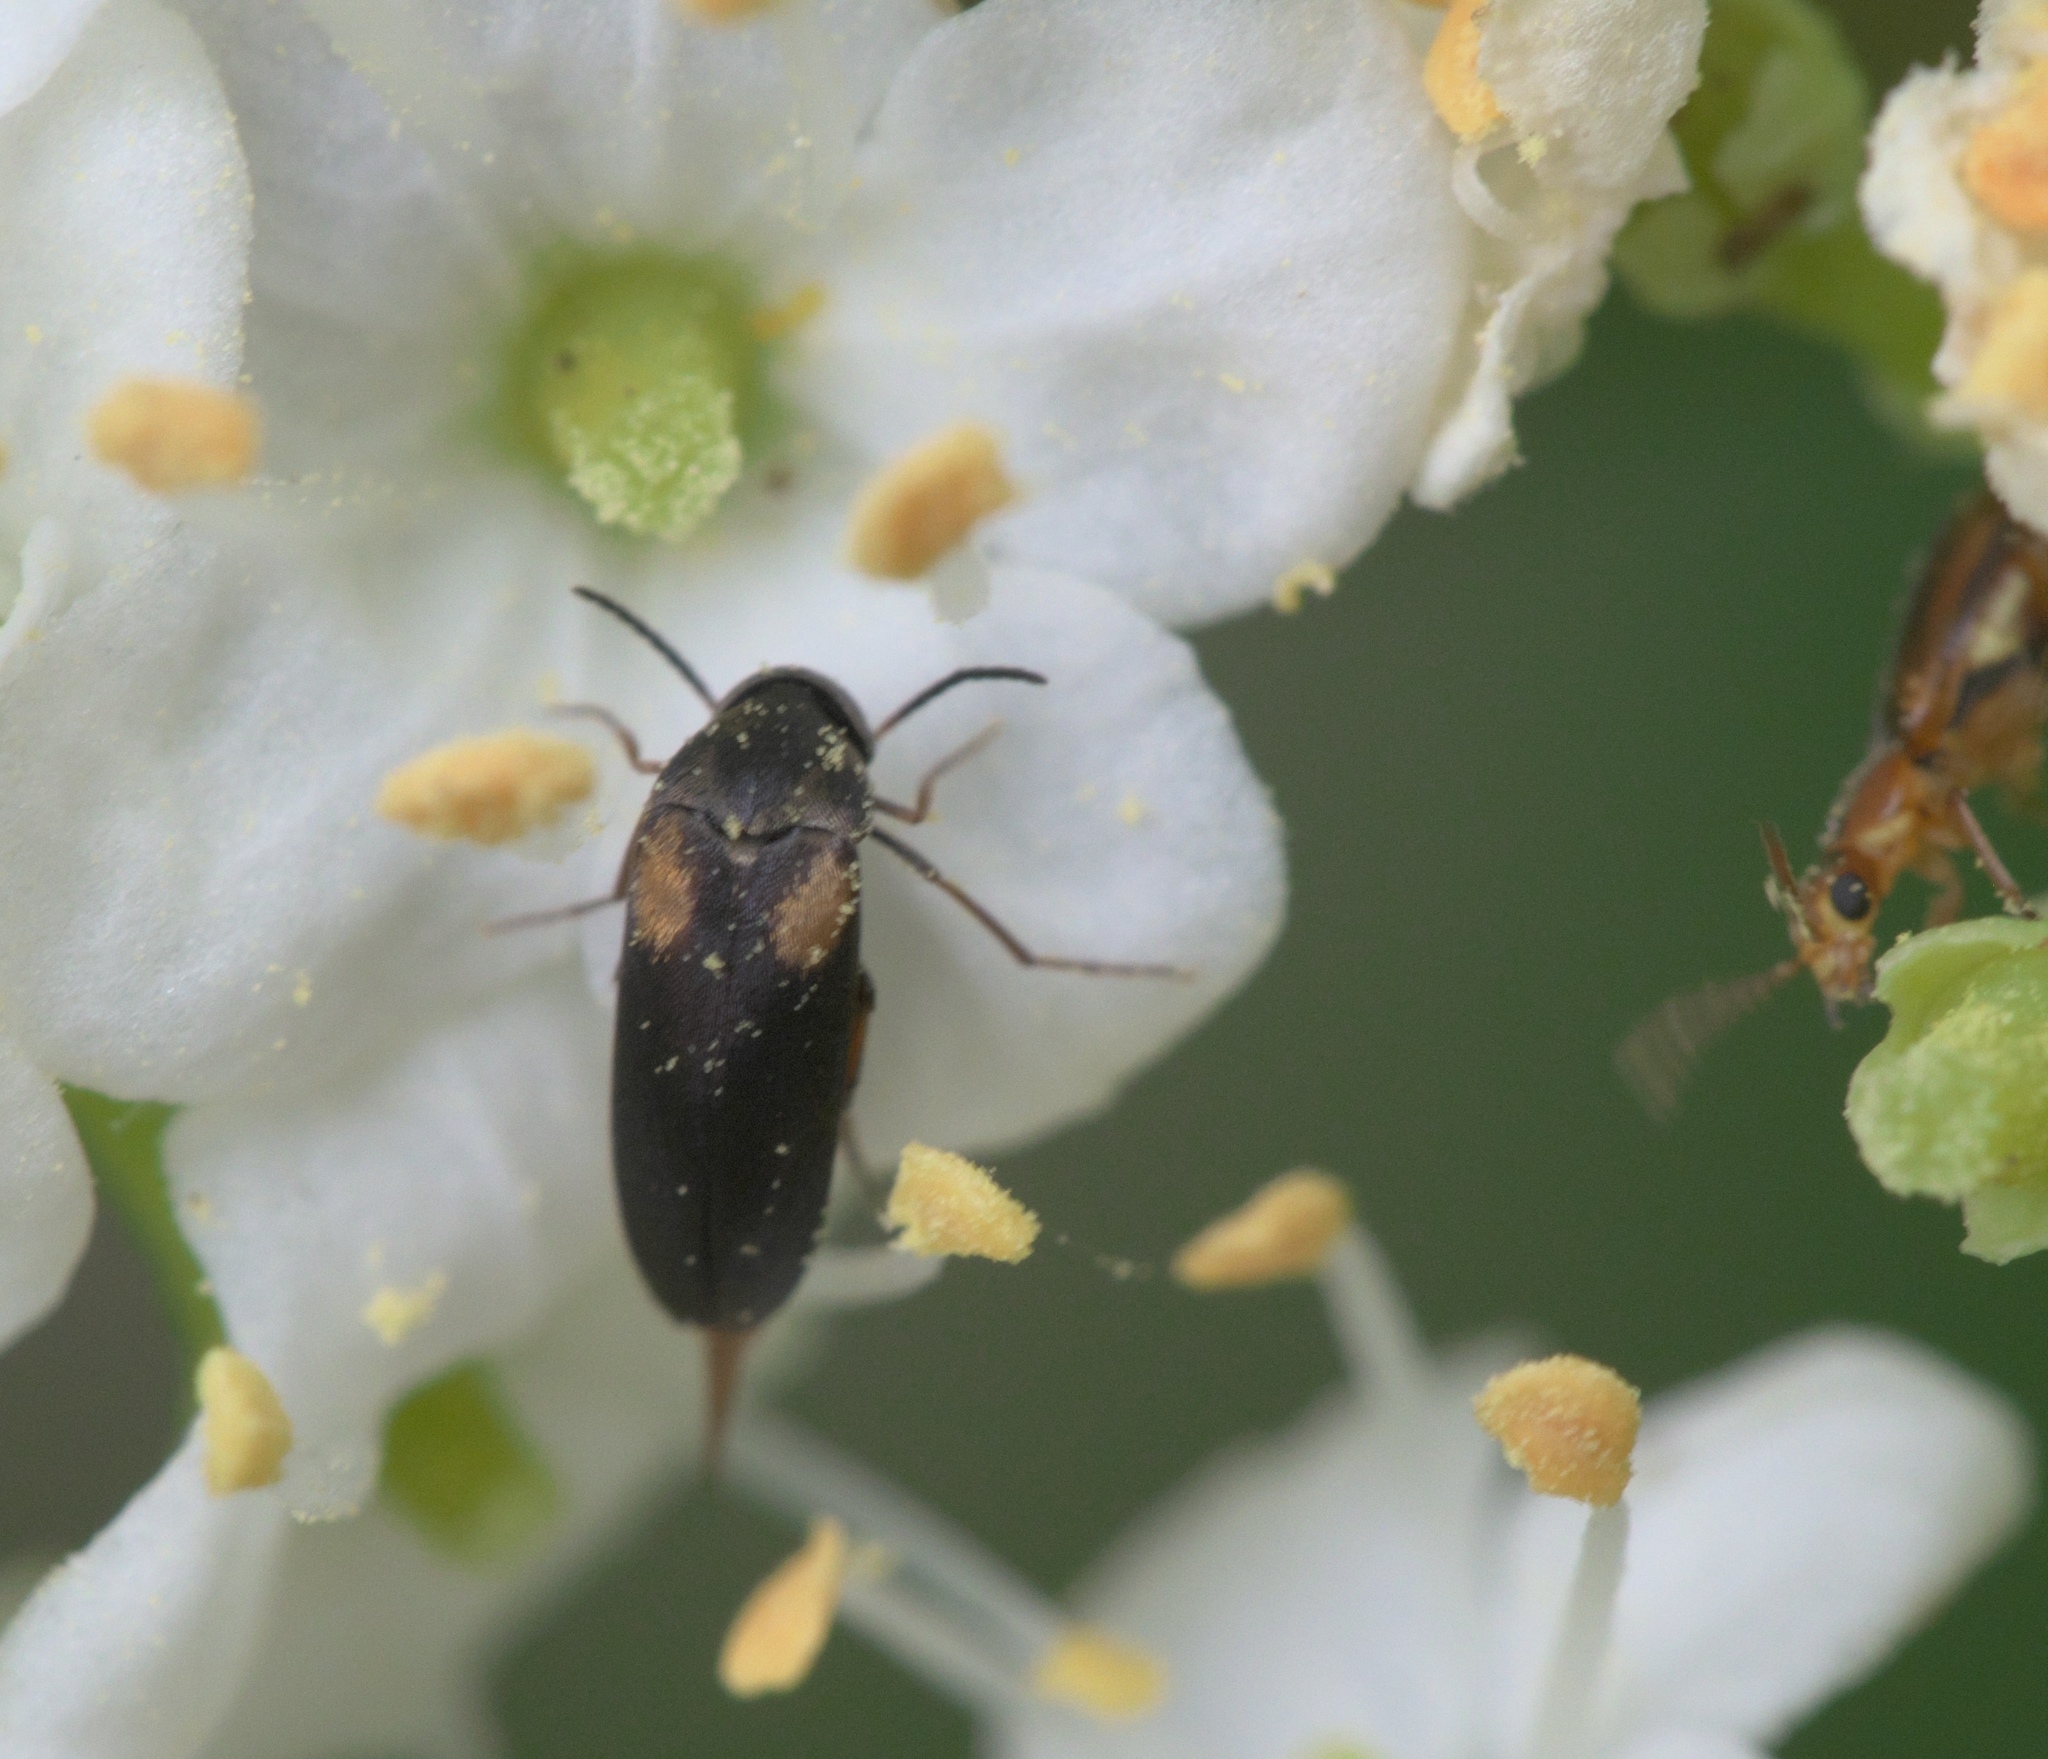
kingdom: Animalia
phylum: Arthropoda
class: Insecta
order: Coleoptera
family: Mordellidae
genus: Mordellochroa
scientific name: Mordellochroa scapularis
